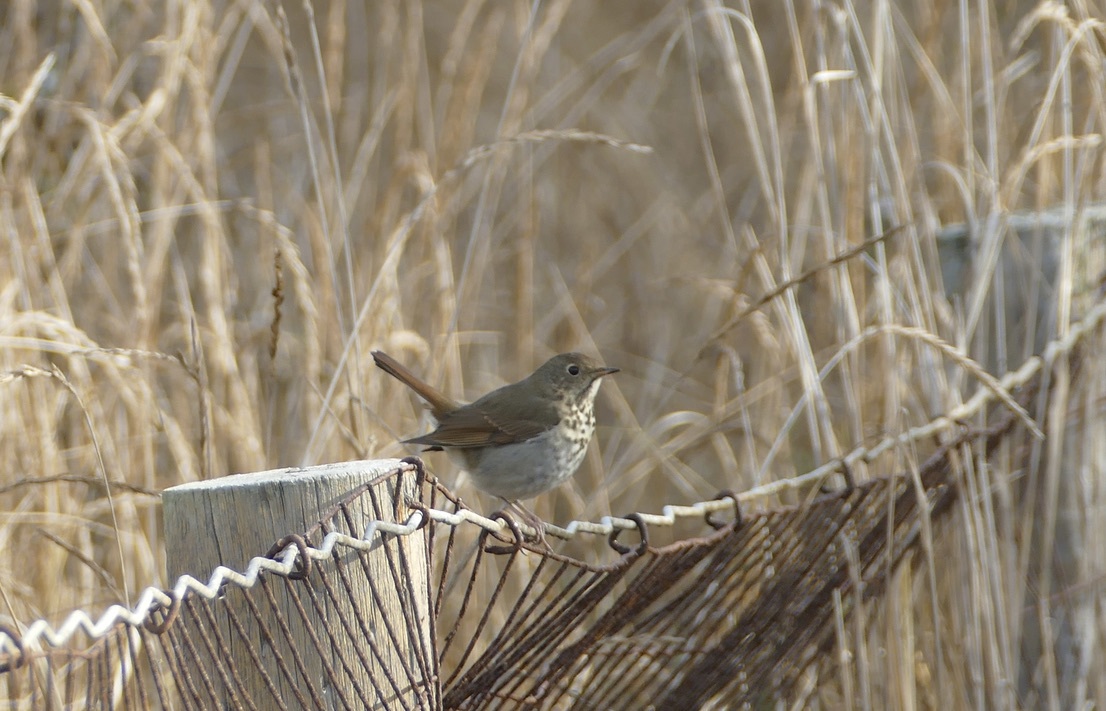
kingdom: Animalia
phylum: Chordata
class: Aves
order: Passeriformes
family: Turdidae
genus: Catharus
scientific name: Catharus guttatus
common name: Hermit thrush
